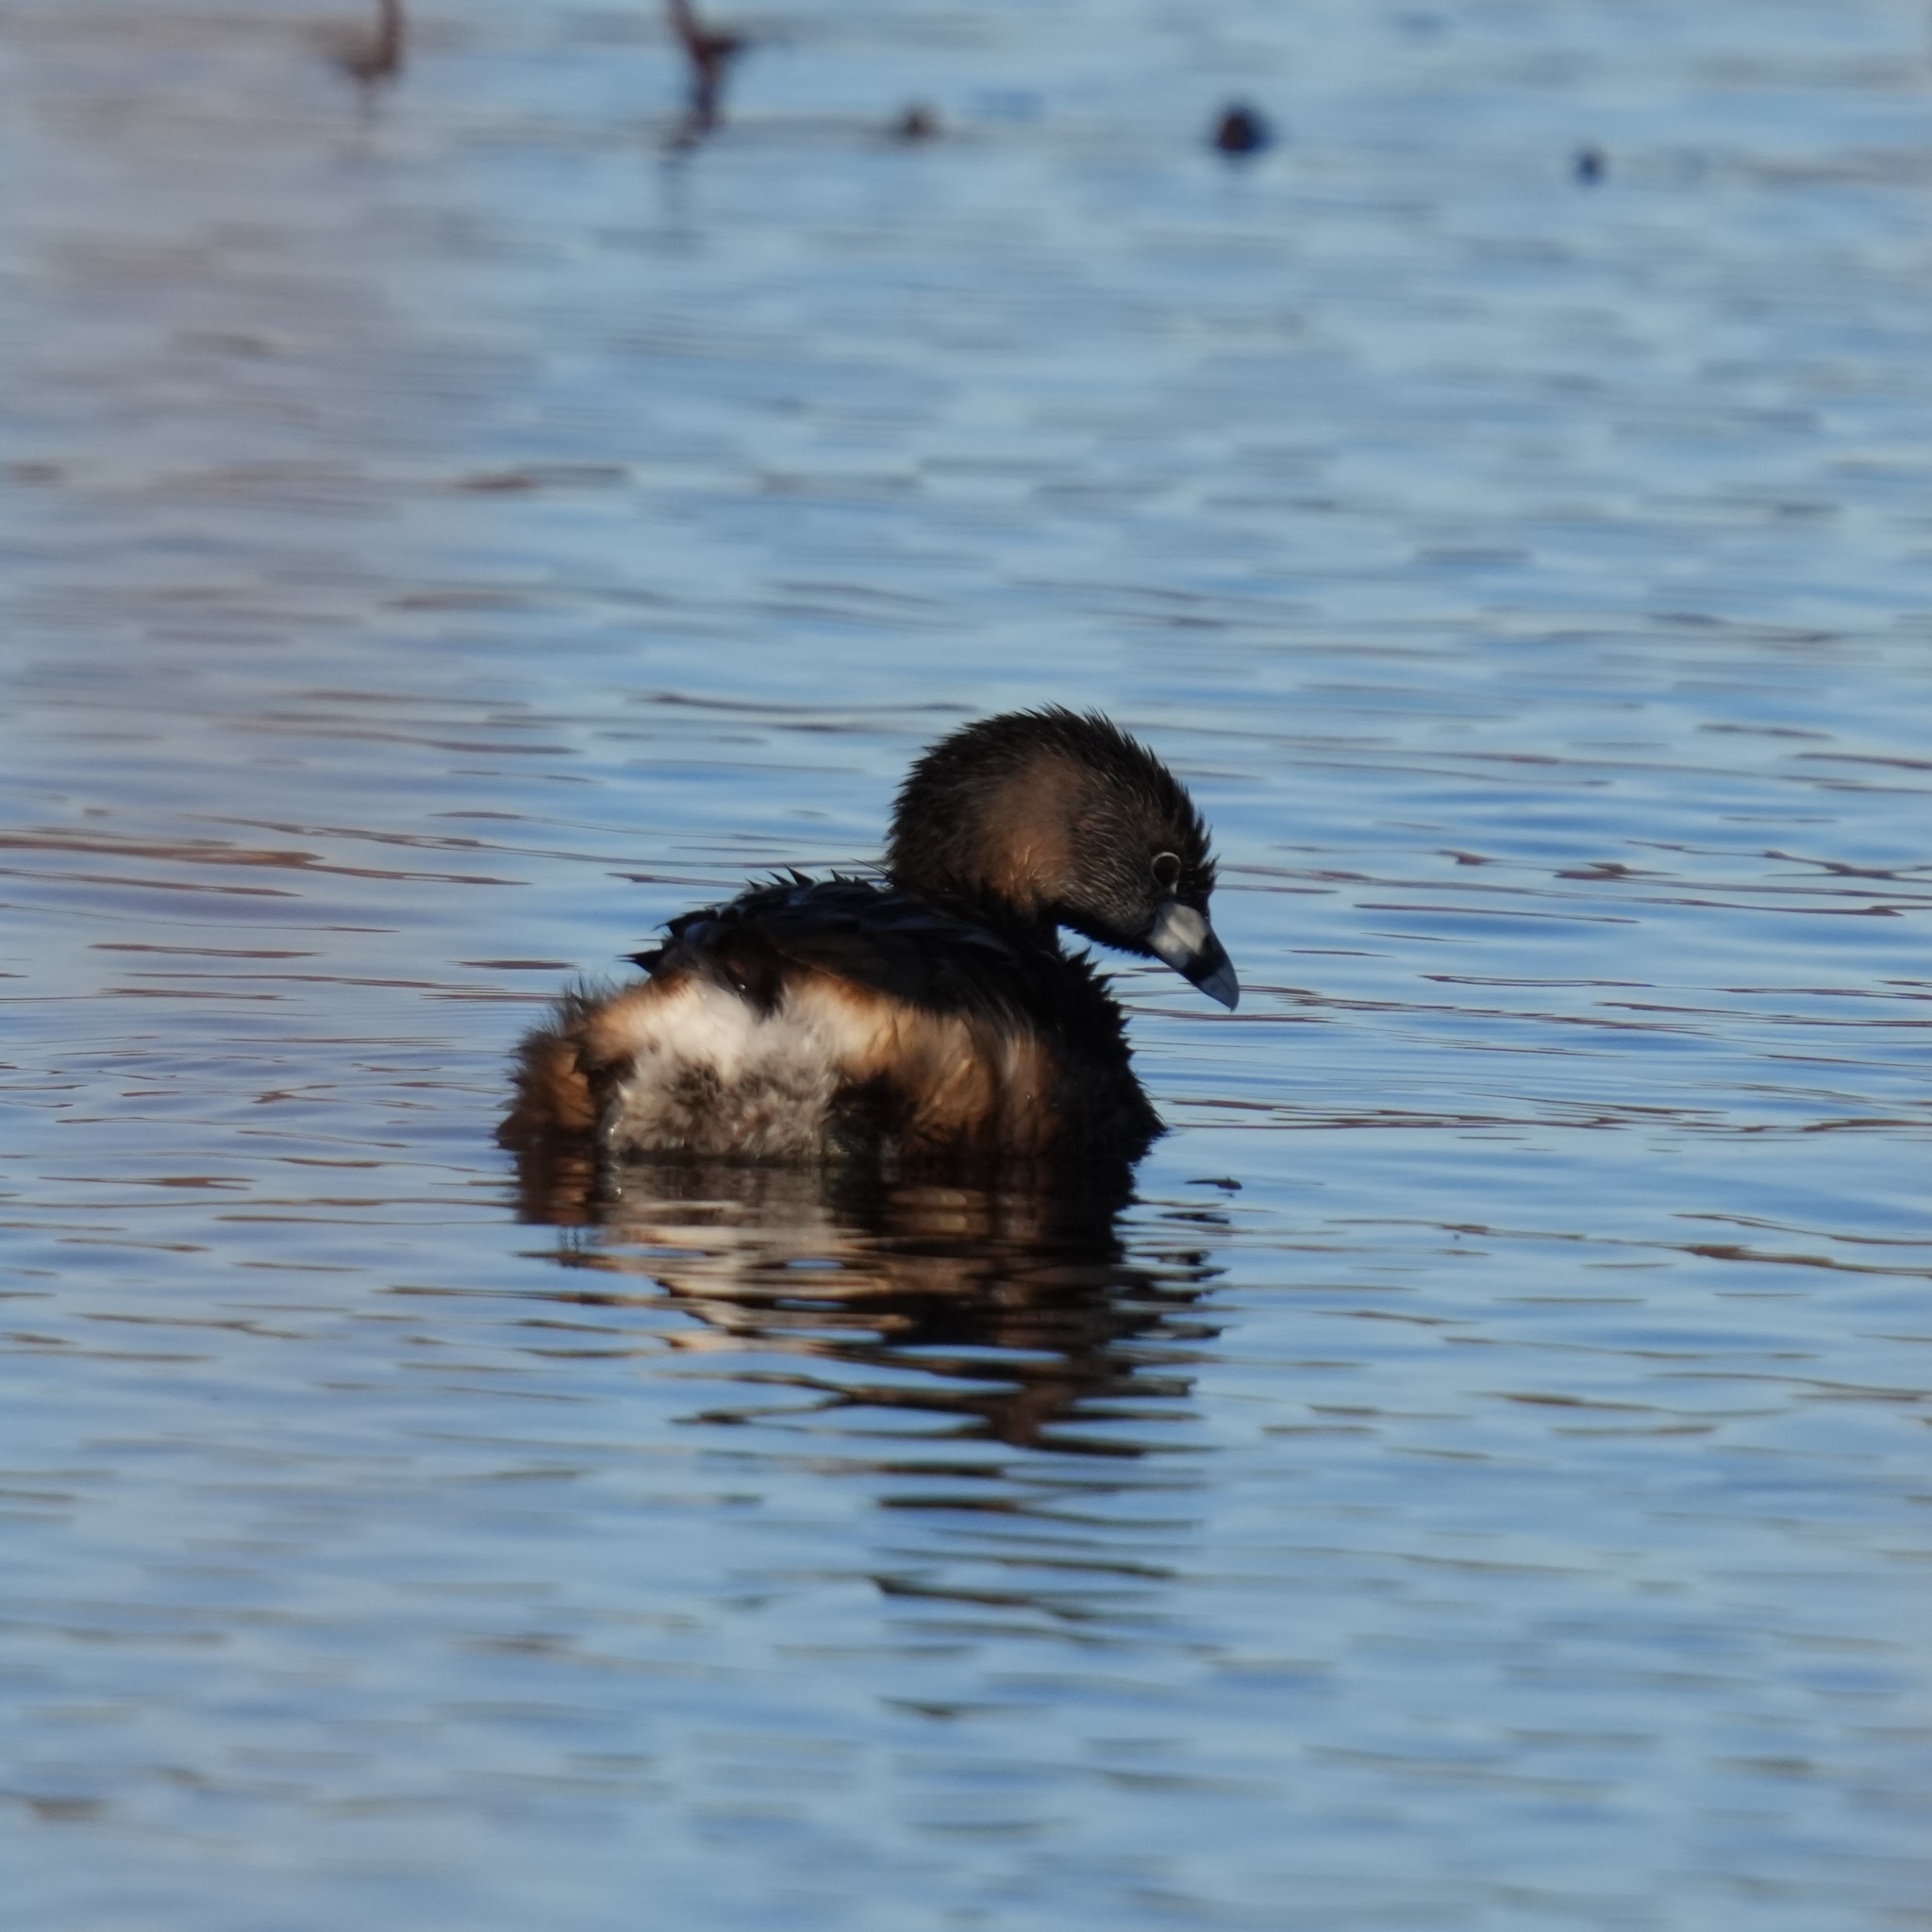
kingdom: Animalia
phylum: Chordata
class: Aves
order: Podicipediformes
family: Podicipedidae
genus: Podilymbus
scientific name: Podilymbus podiceps
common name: Pied-billed grebe
